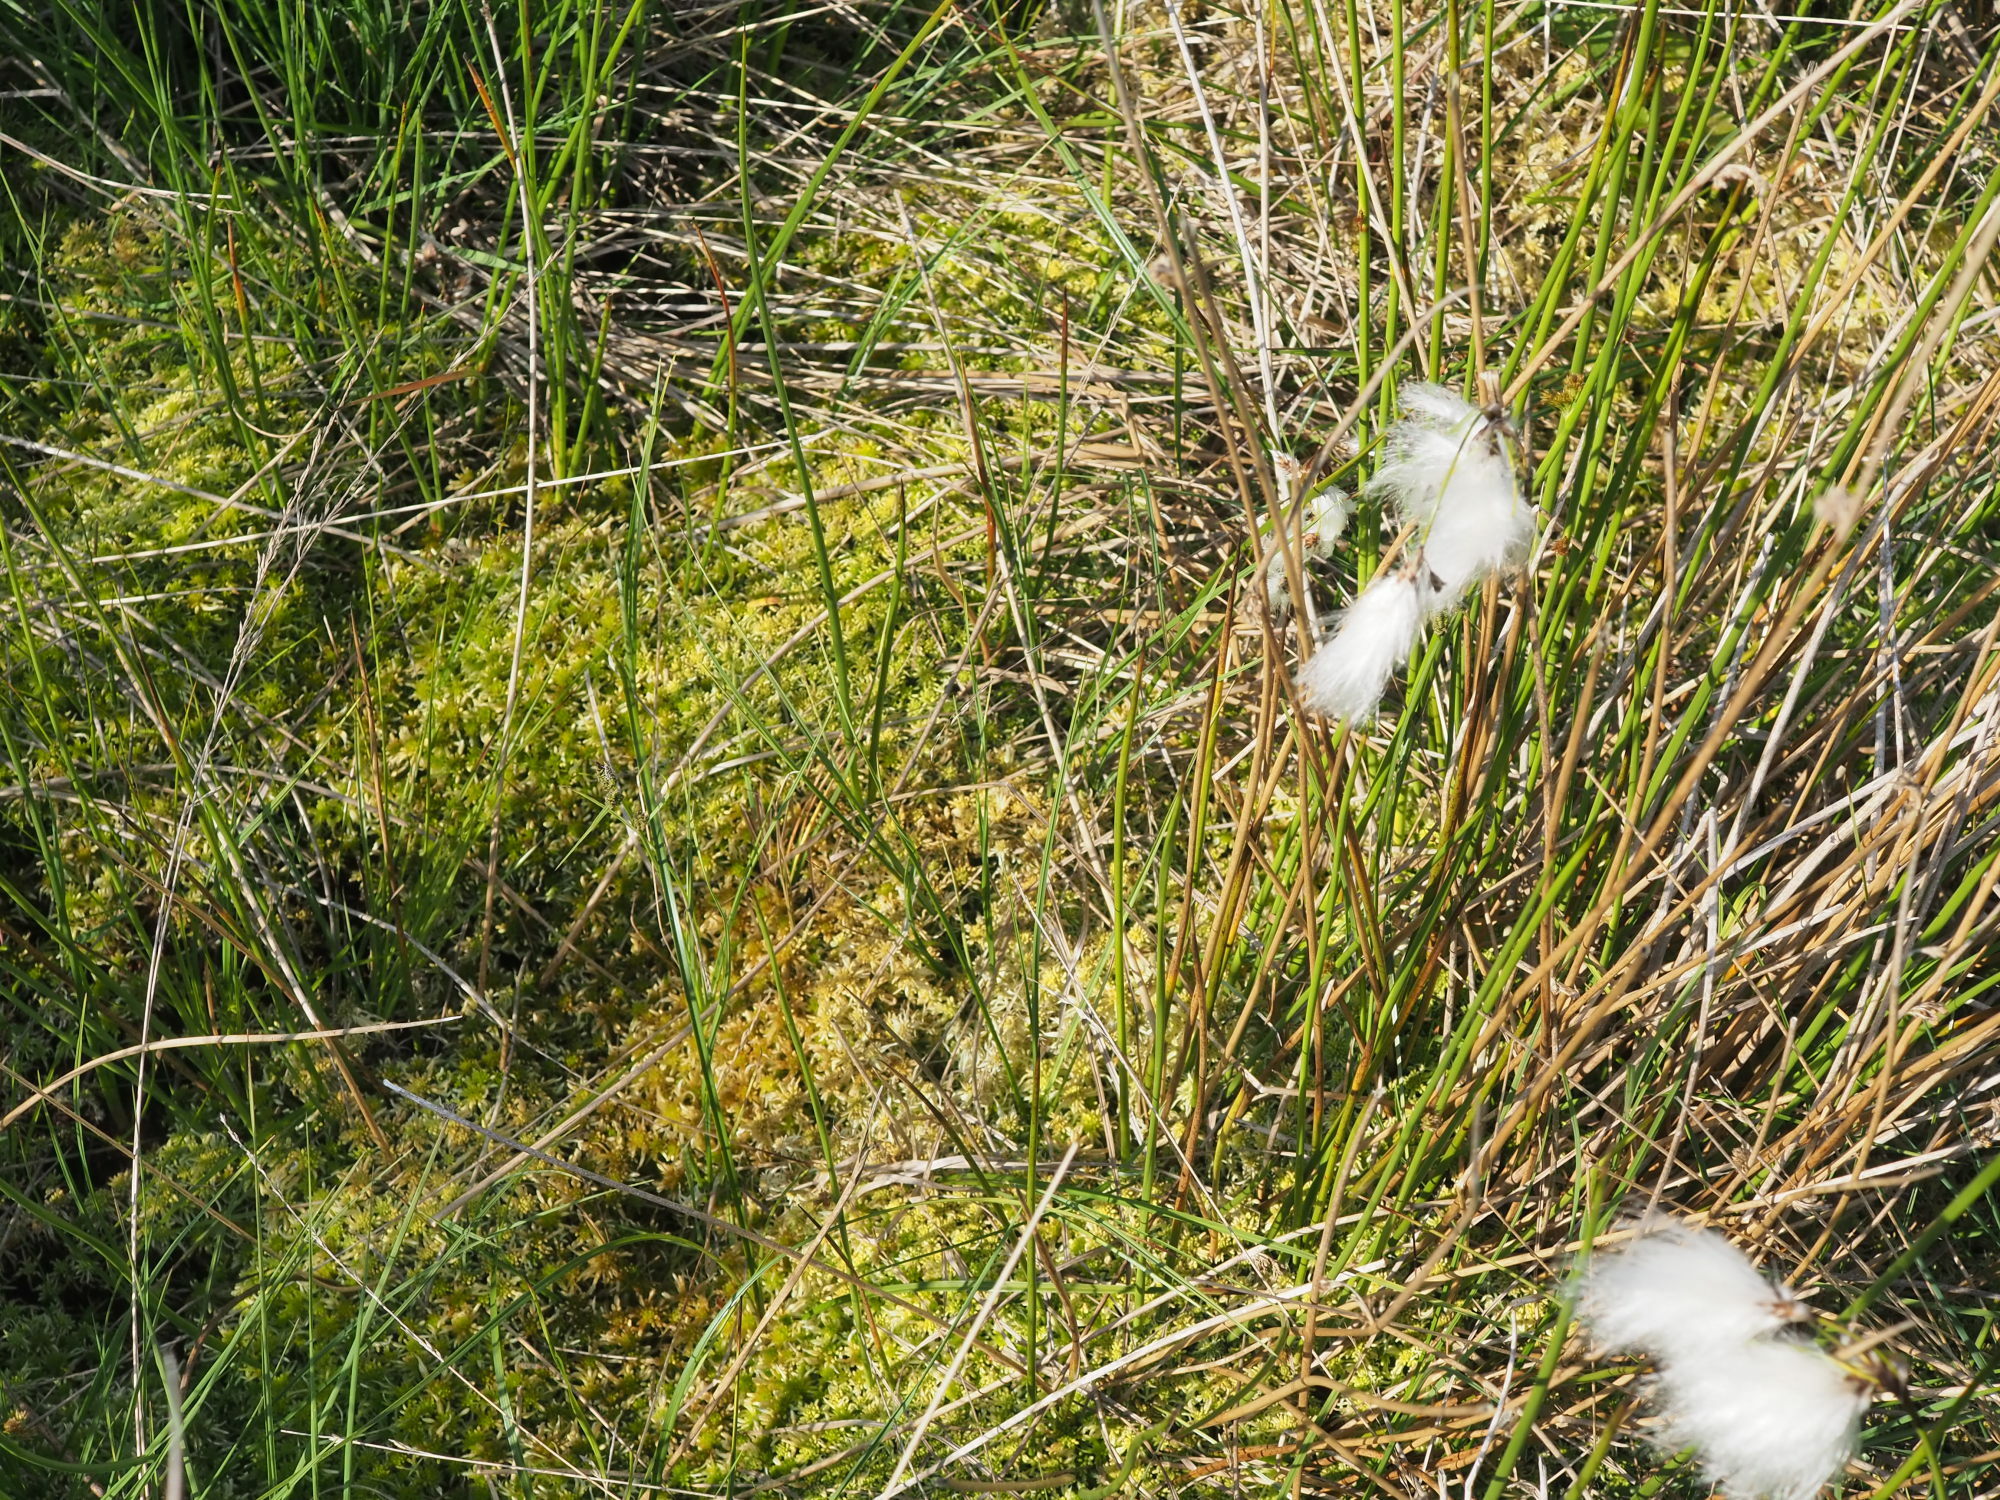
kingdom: Plantae
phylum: Tracheophyta
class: Liliopsida
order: Poales
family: Cyperaceae
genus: Eriophorum
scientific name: Eriophorum angustifolium
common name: Common cottongrass
